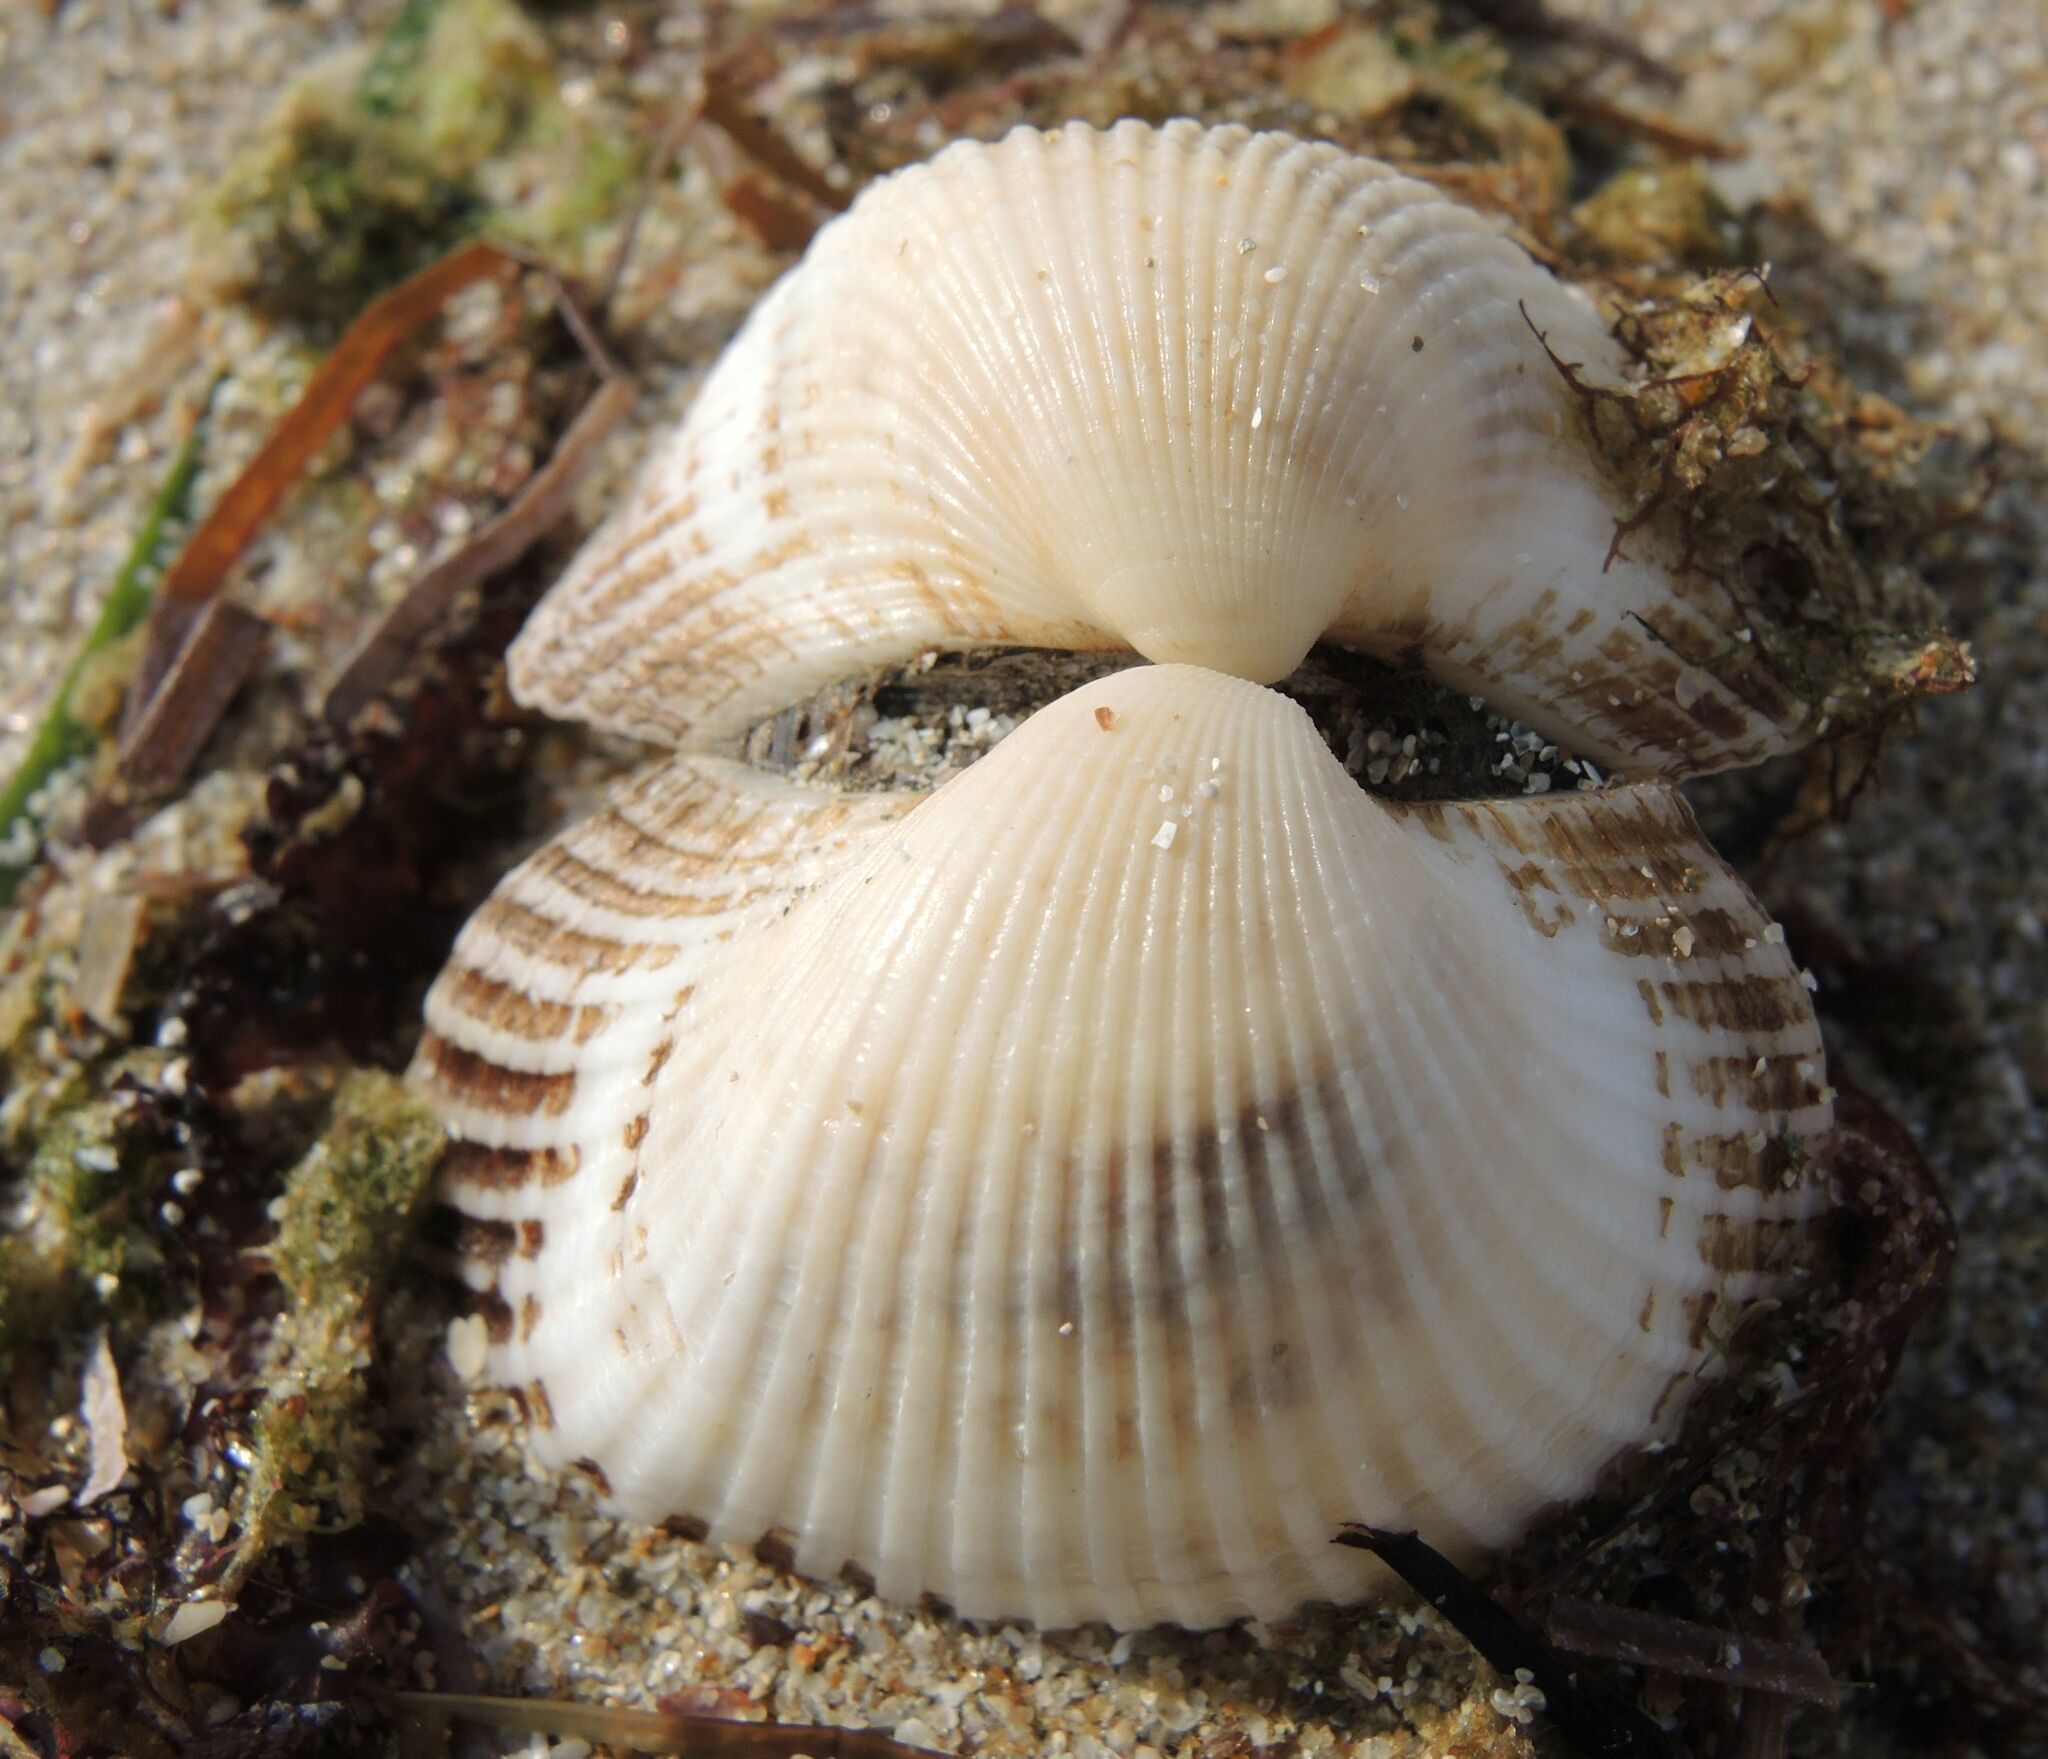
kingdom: Animalia
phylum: Mollusca
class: Bivalvia
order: Arcida
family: Arcidae
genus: Anadara
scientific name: Anadara kagoshimensis
